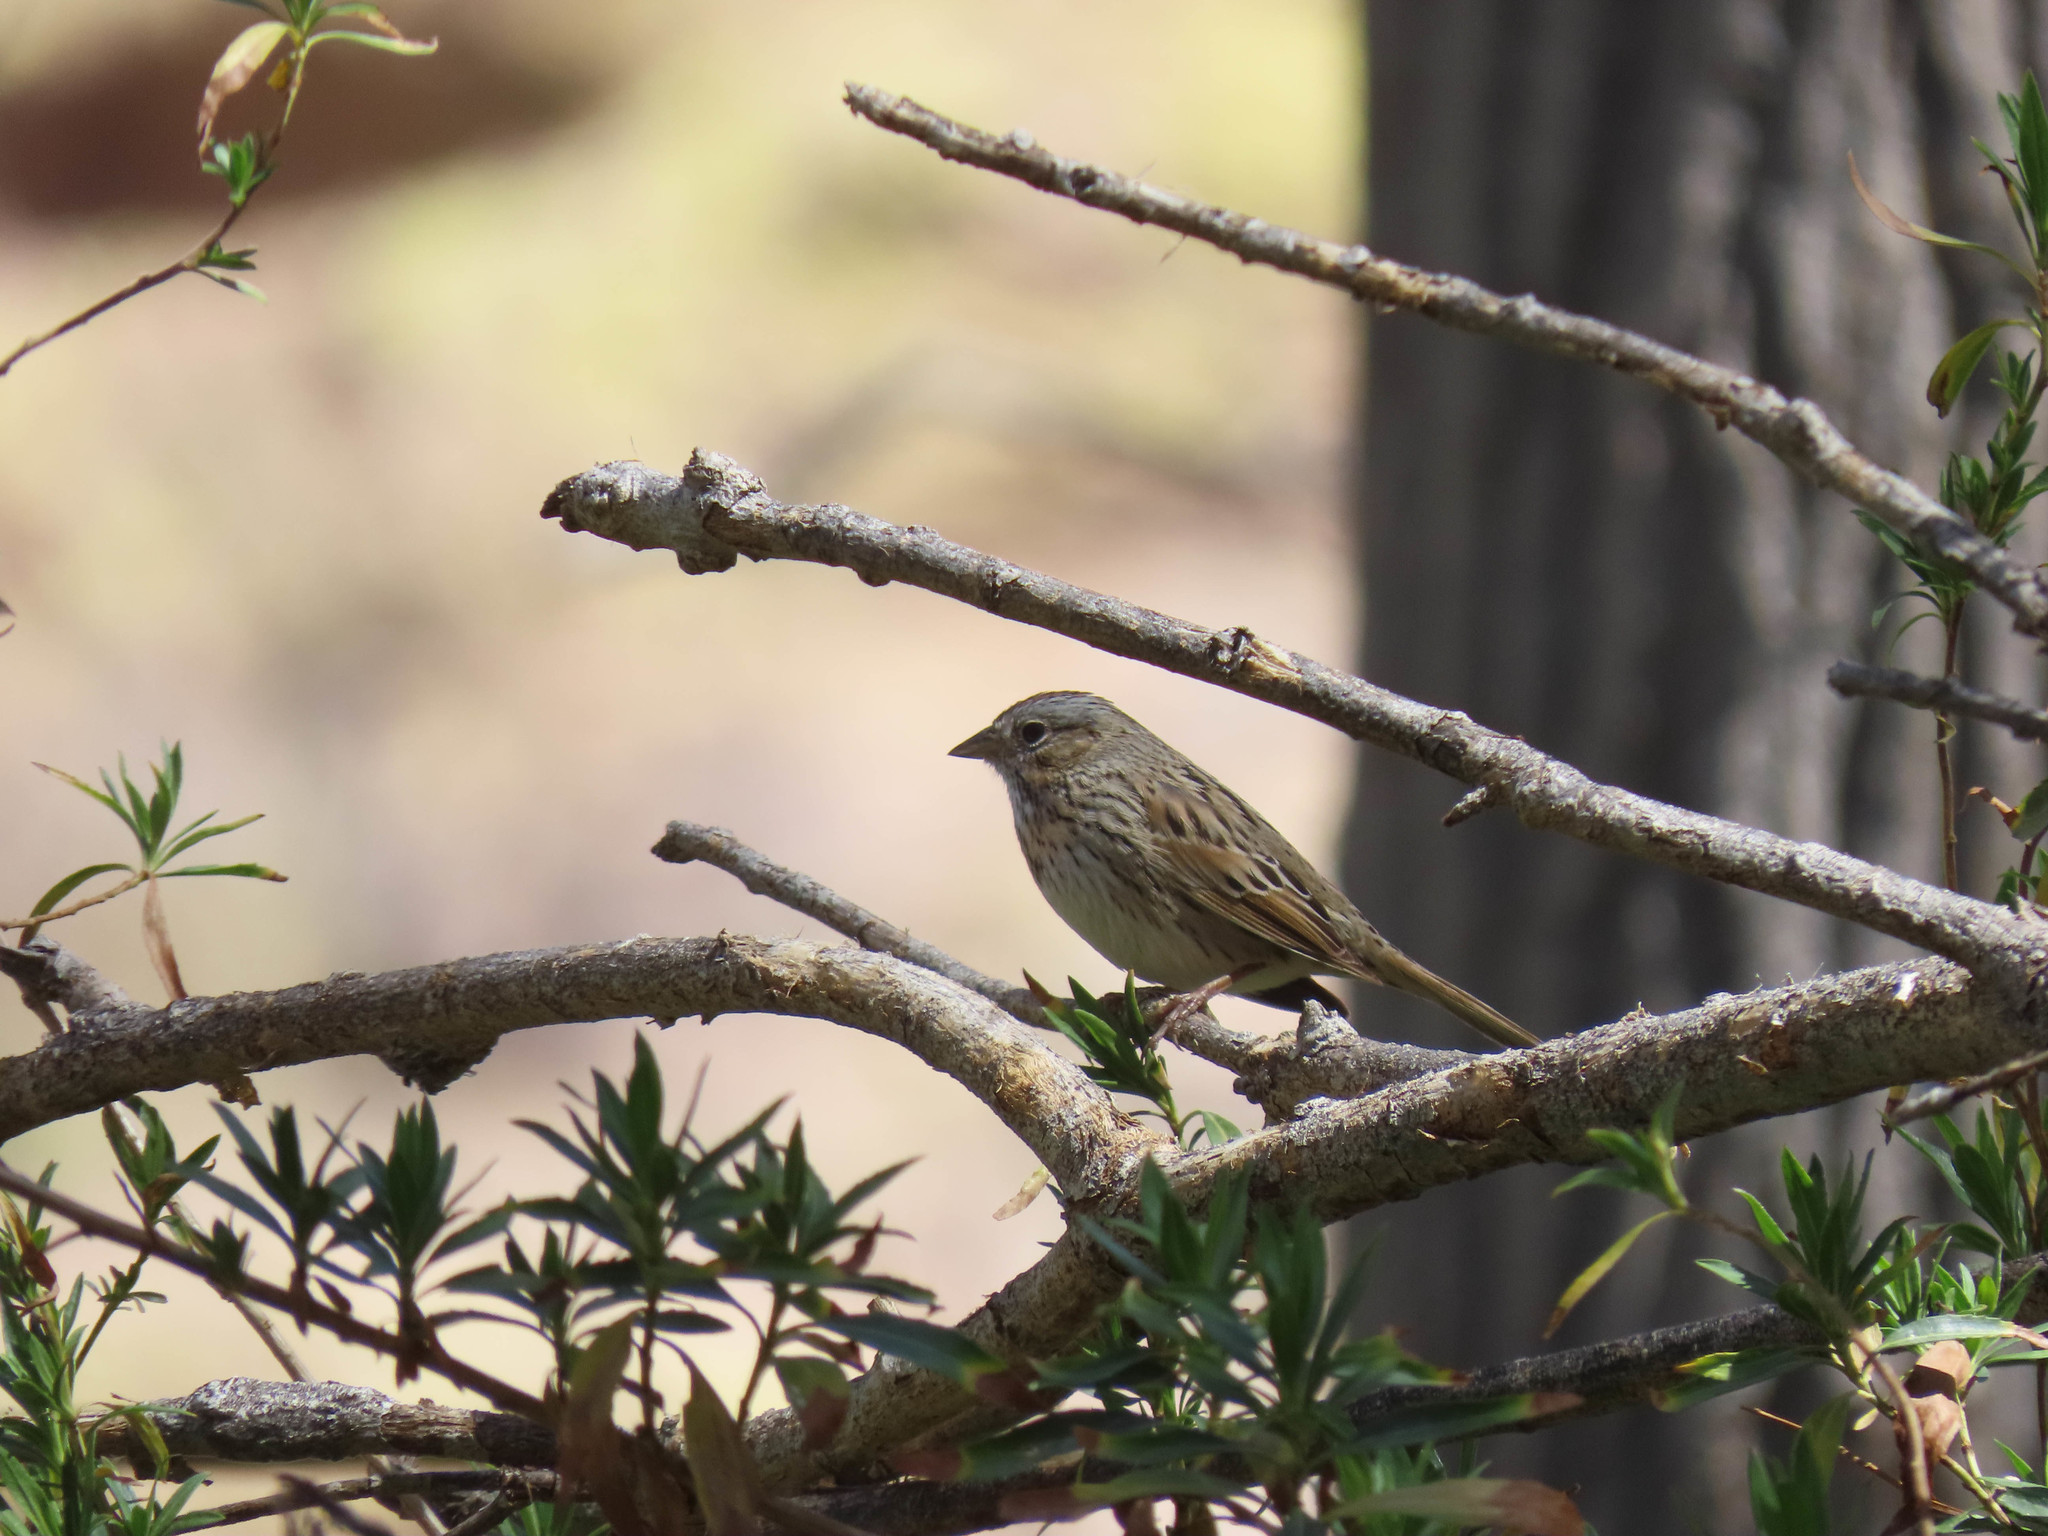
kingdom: Animalia
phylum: Chordata
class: Aves
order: Passeriformes
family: Passerellidae
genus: Melospiza
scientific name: Melospiza lincolnii
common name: Lincoln's sparrow
